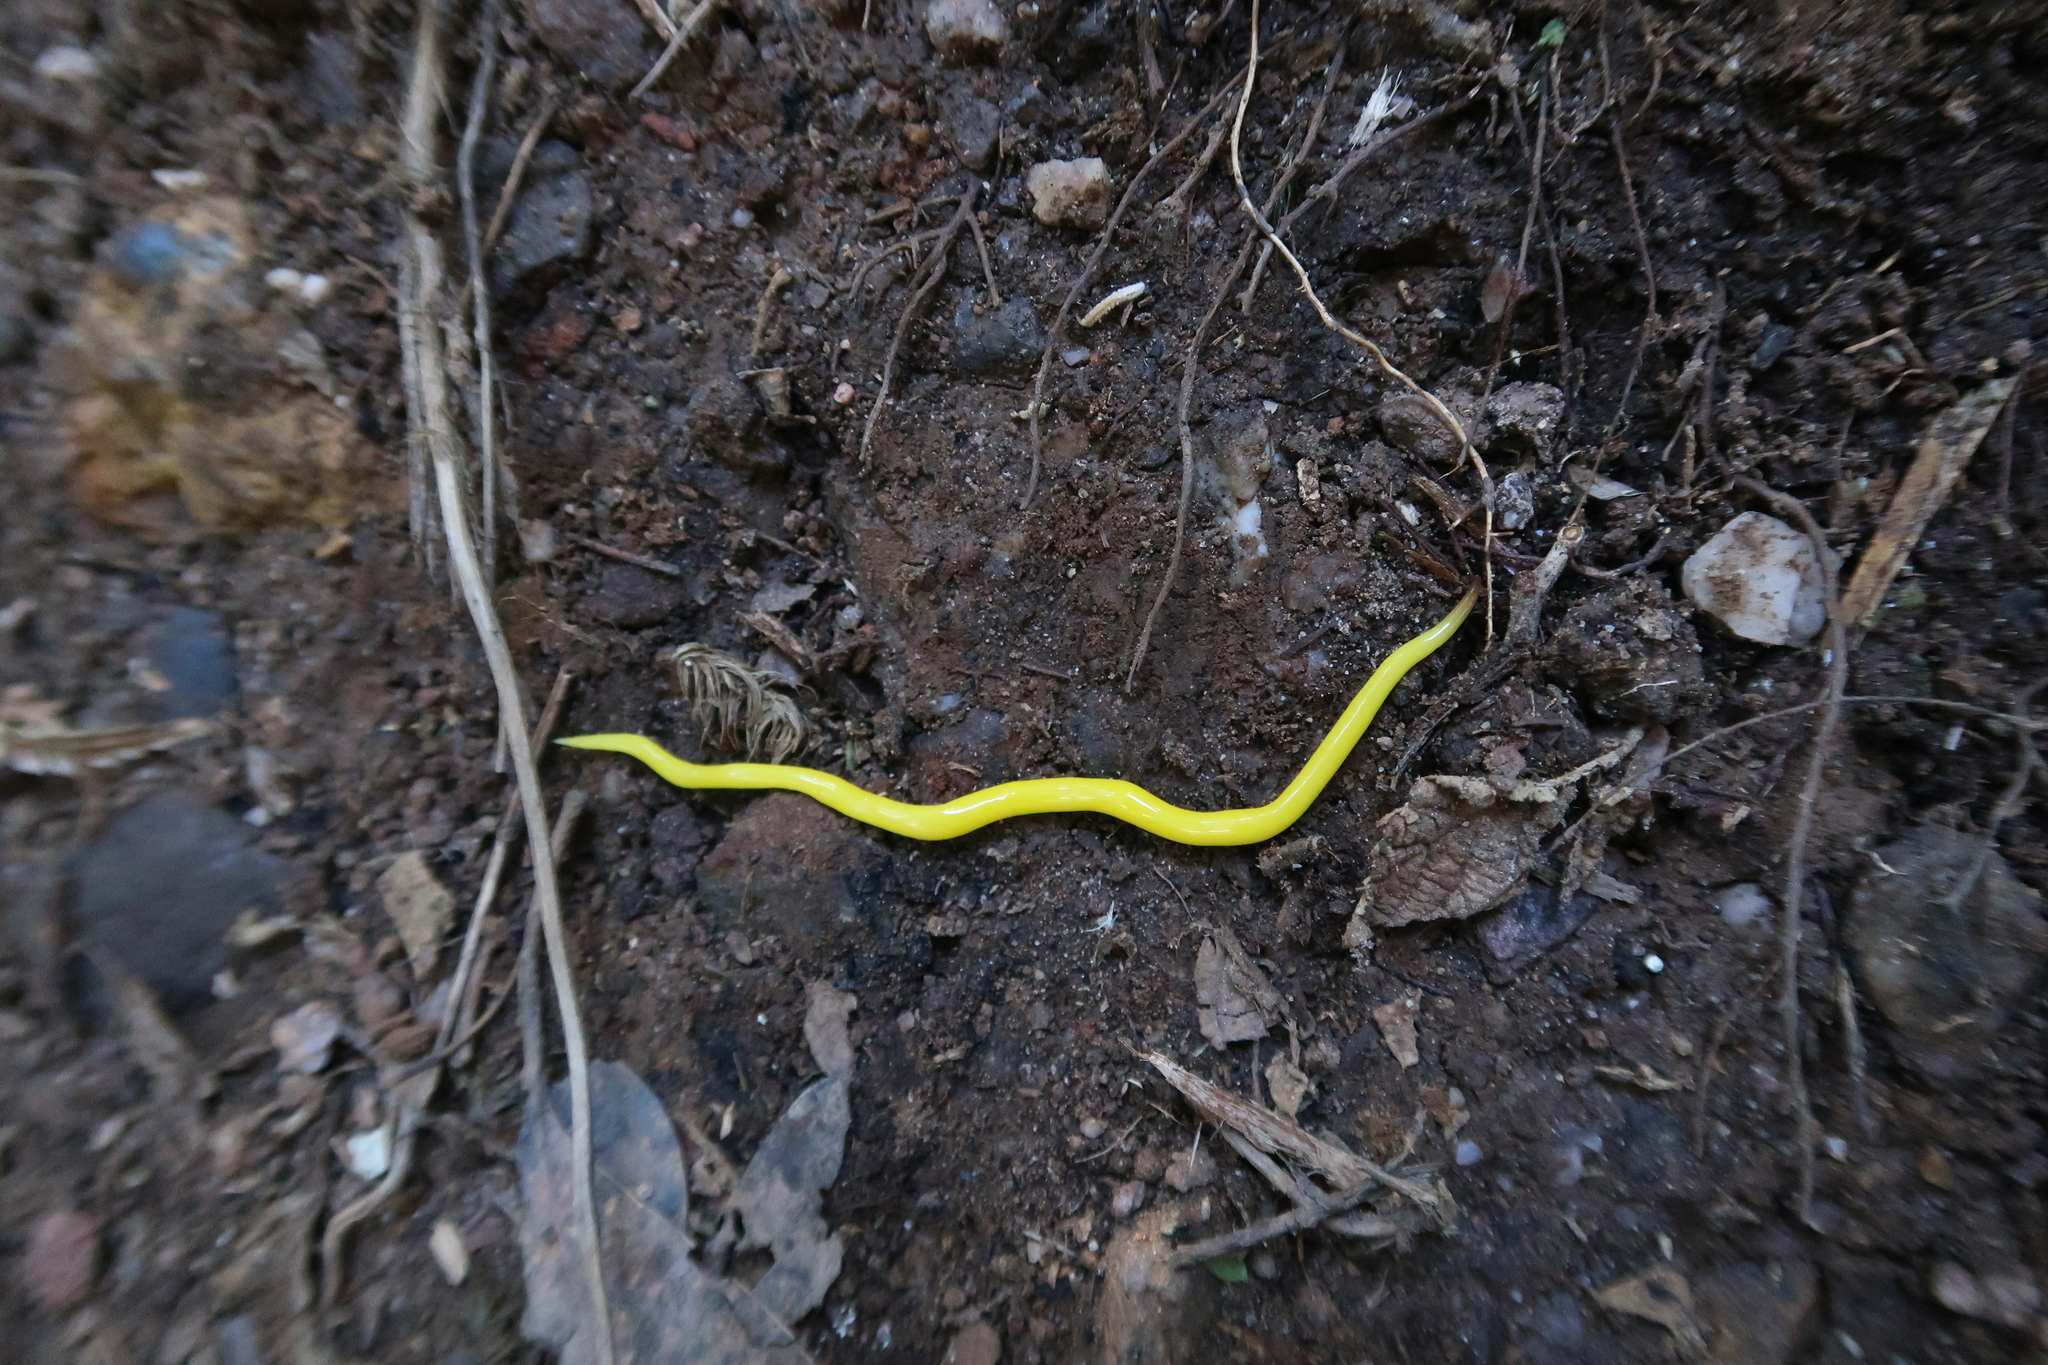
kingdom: Animalia
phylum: Platyhelminthes
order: Tricladida
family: Geoplanidae
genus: Fletchamia
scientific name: Fletchamia sugdeni
